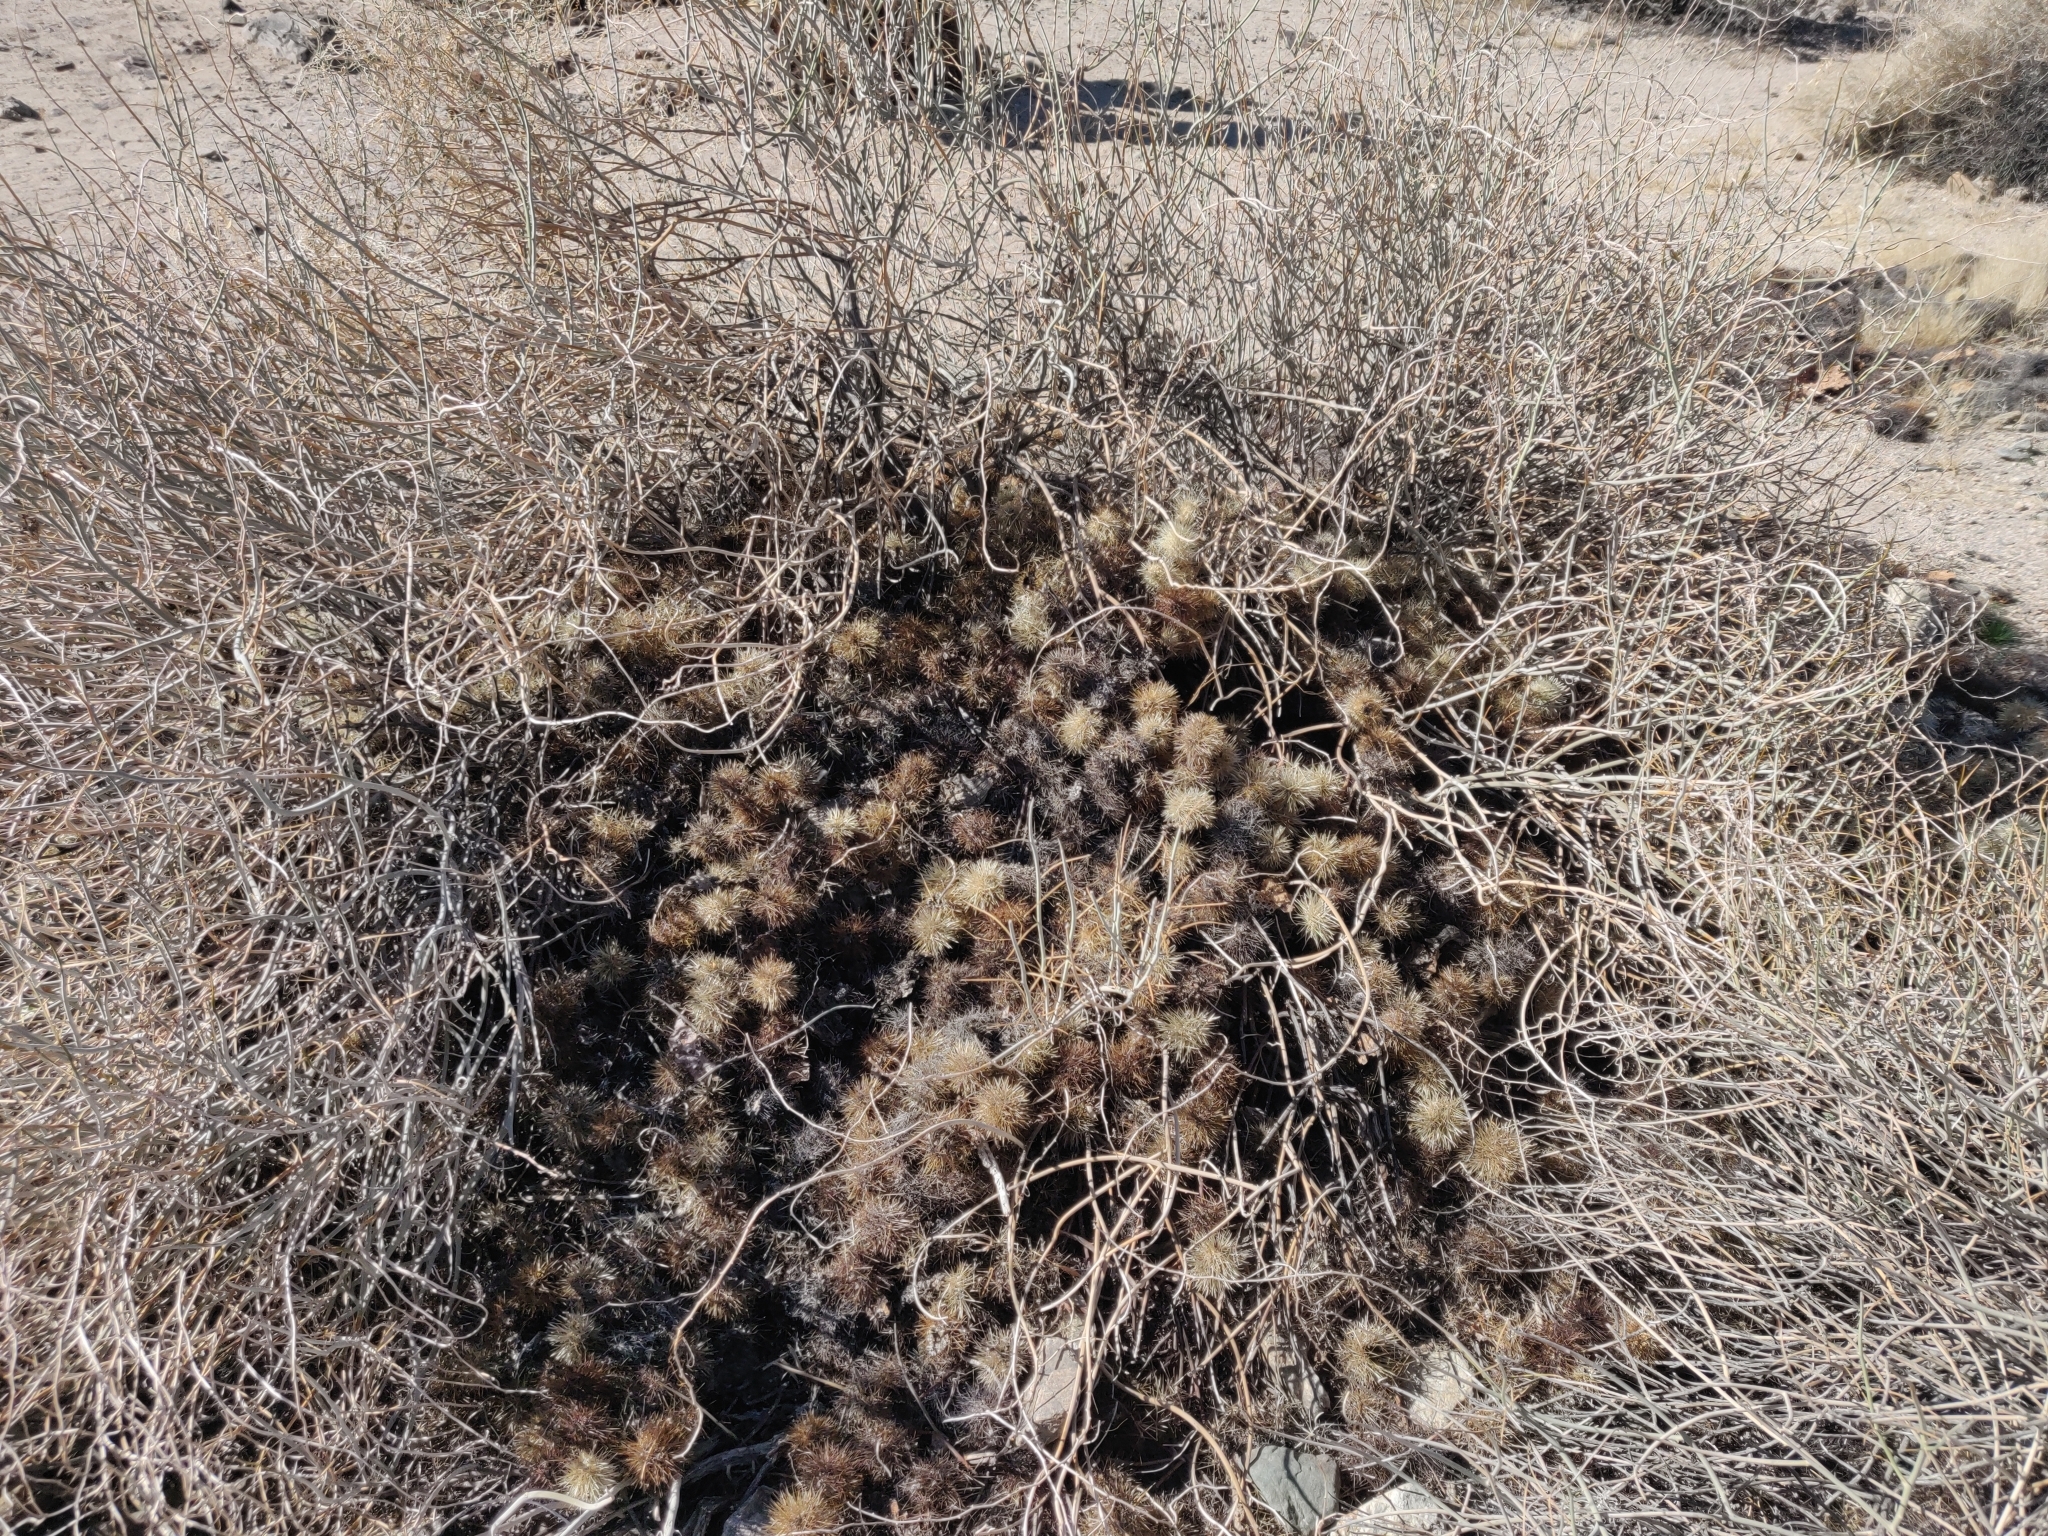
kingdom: Plantae
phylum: Tracheophyta
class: Magnoliopsida
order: Caryophyllales
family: Cactaceae
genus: Cylindropuntia
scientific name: Cylindropuntia fosbergii
